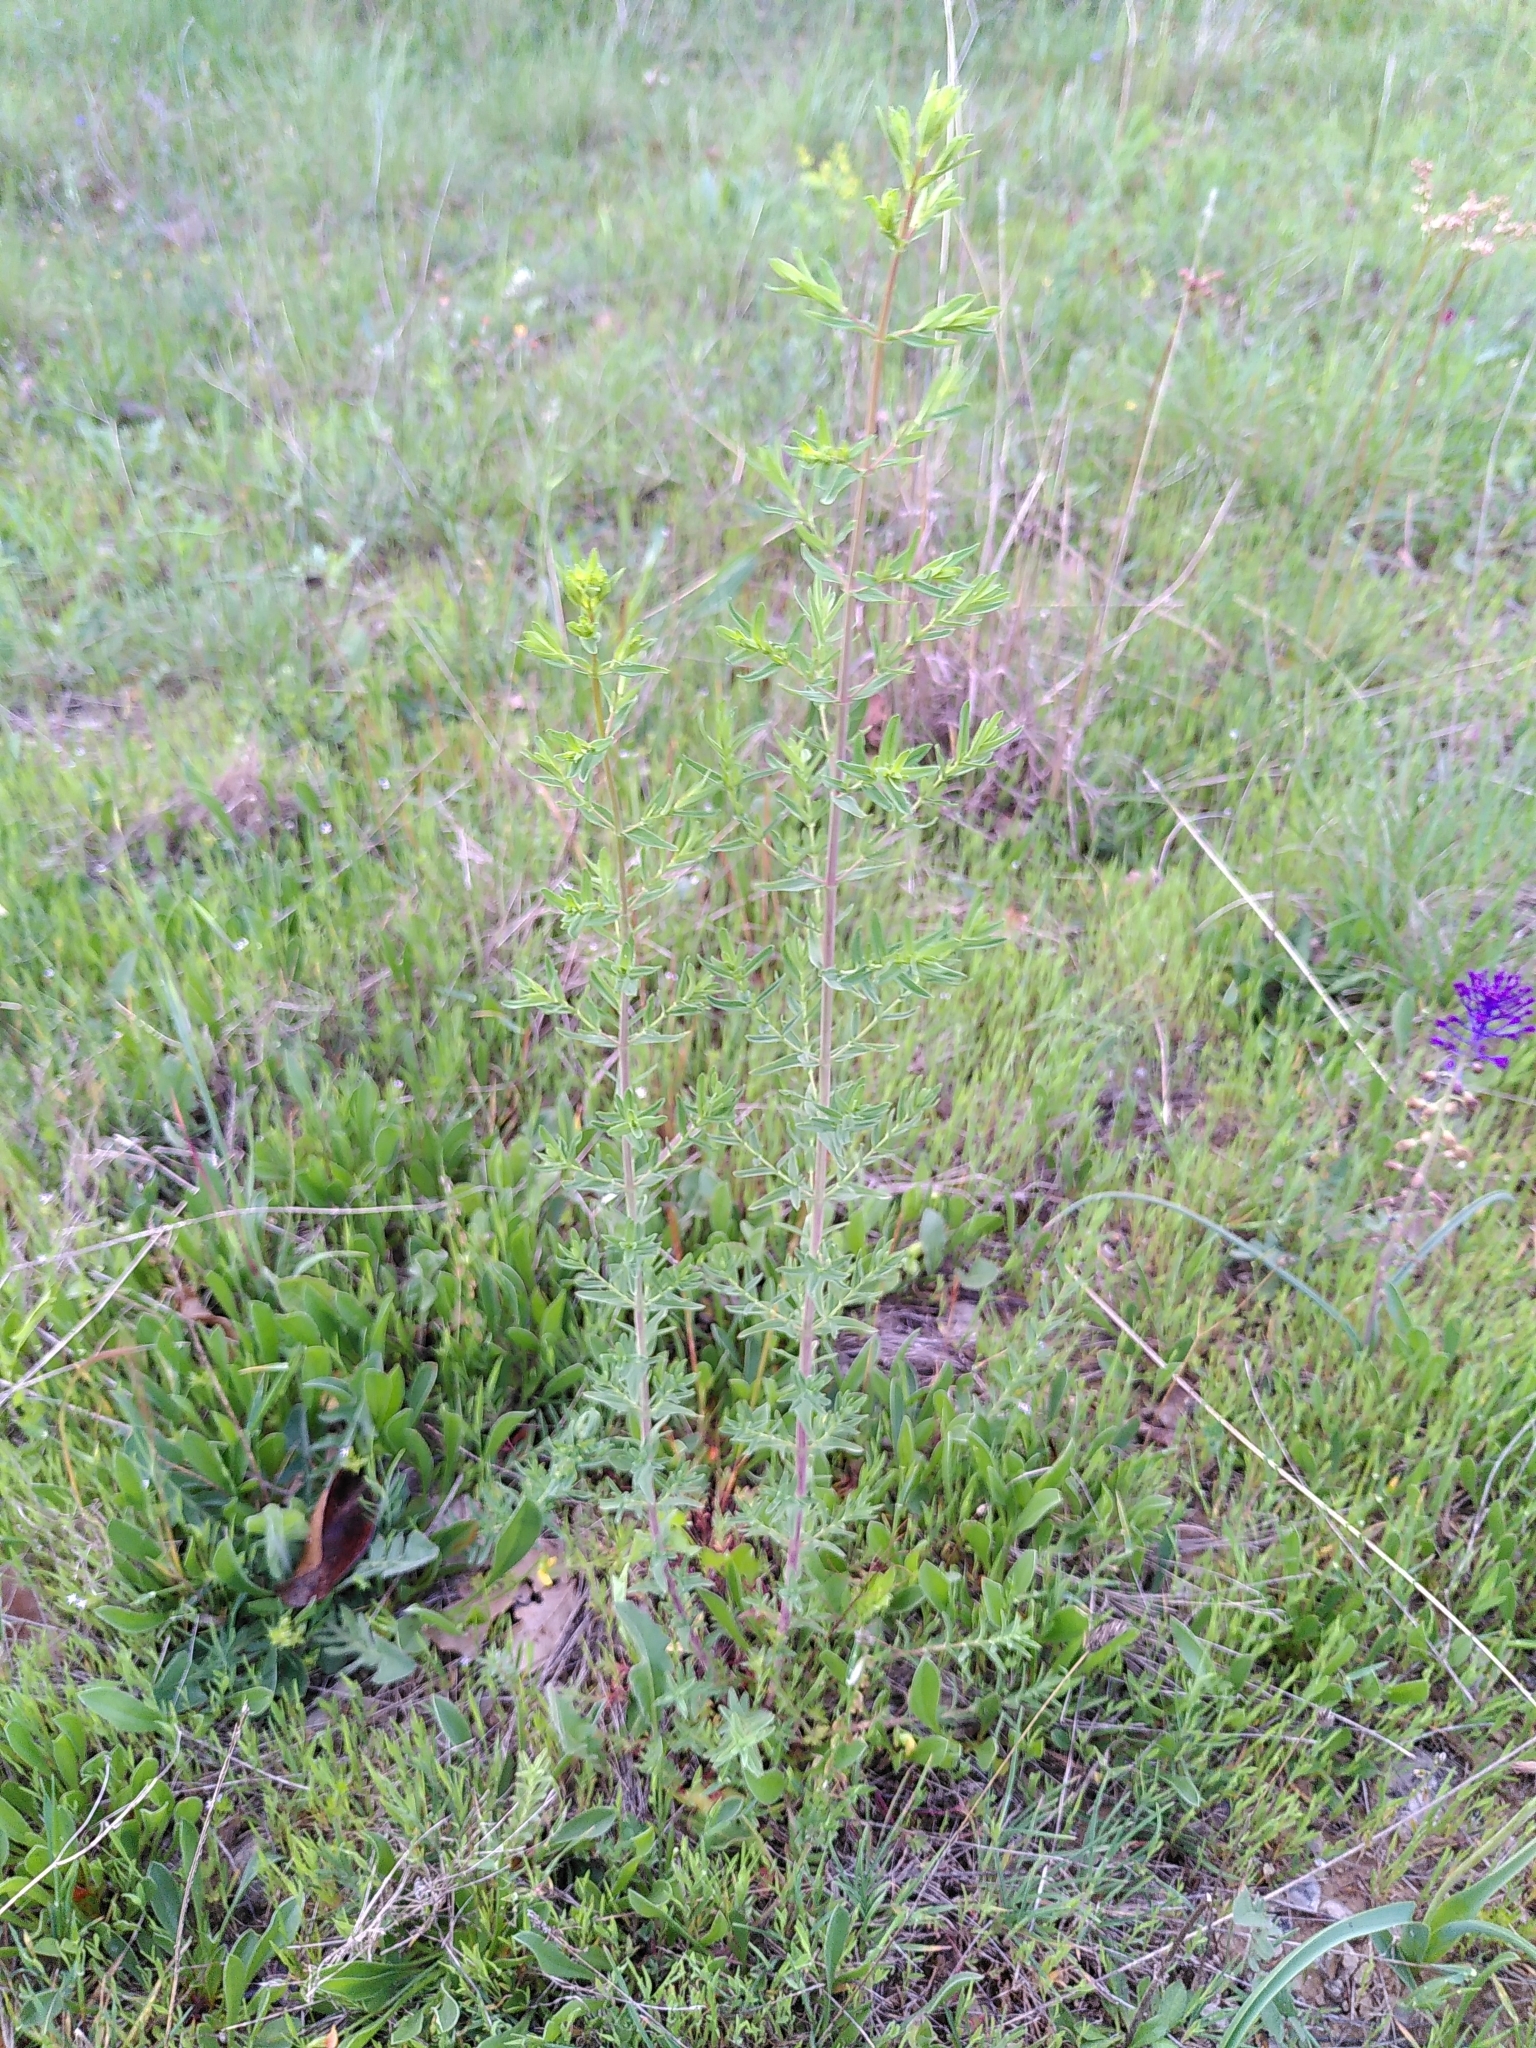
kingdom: Plantae
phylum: Tracheophyta
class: Magnoliopsida
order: Malpighiales
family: Hypericaceae
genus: Hypericum
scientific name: Hypericum perforatum
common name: Common st. johnswort
